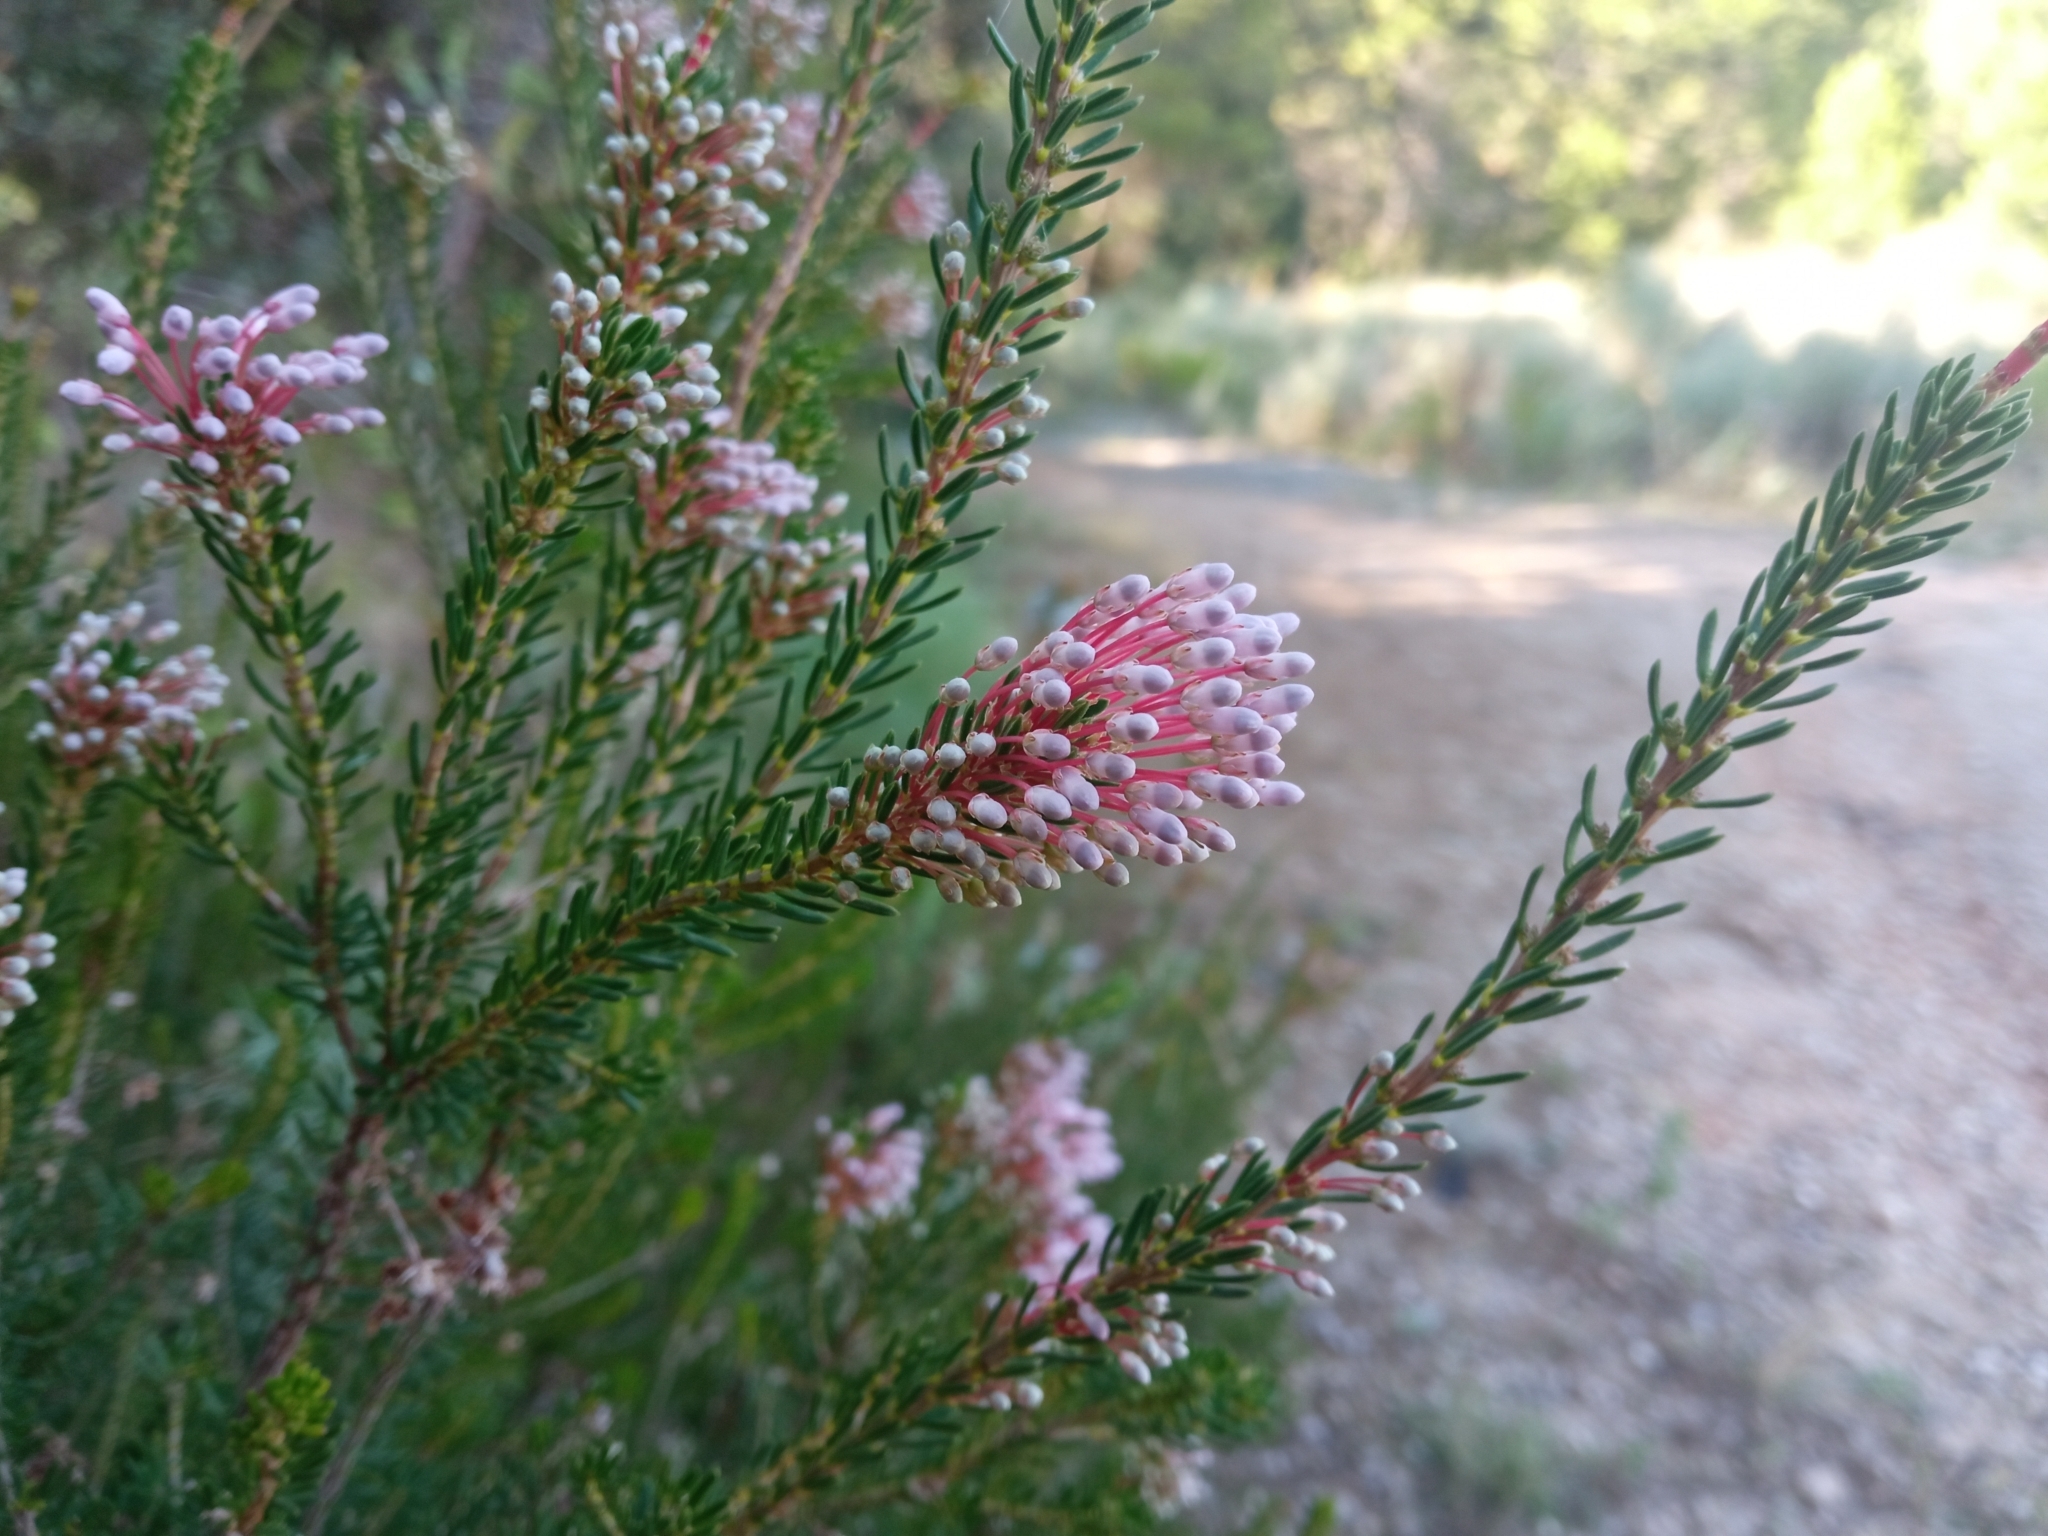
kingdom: Plantae
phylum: Tracheophyta
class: Magnoliopsida
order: Ericales
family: Ericaceae
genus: Erica
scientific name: Erica multiflora
